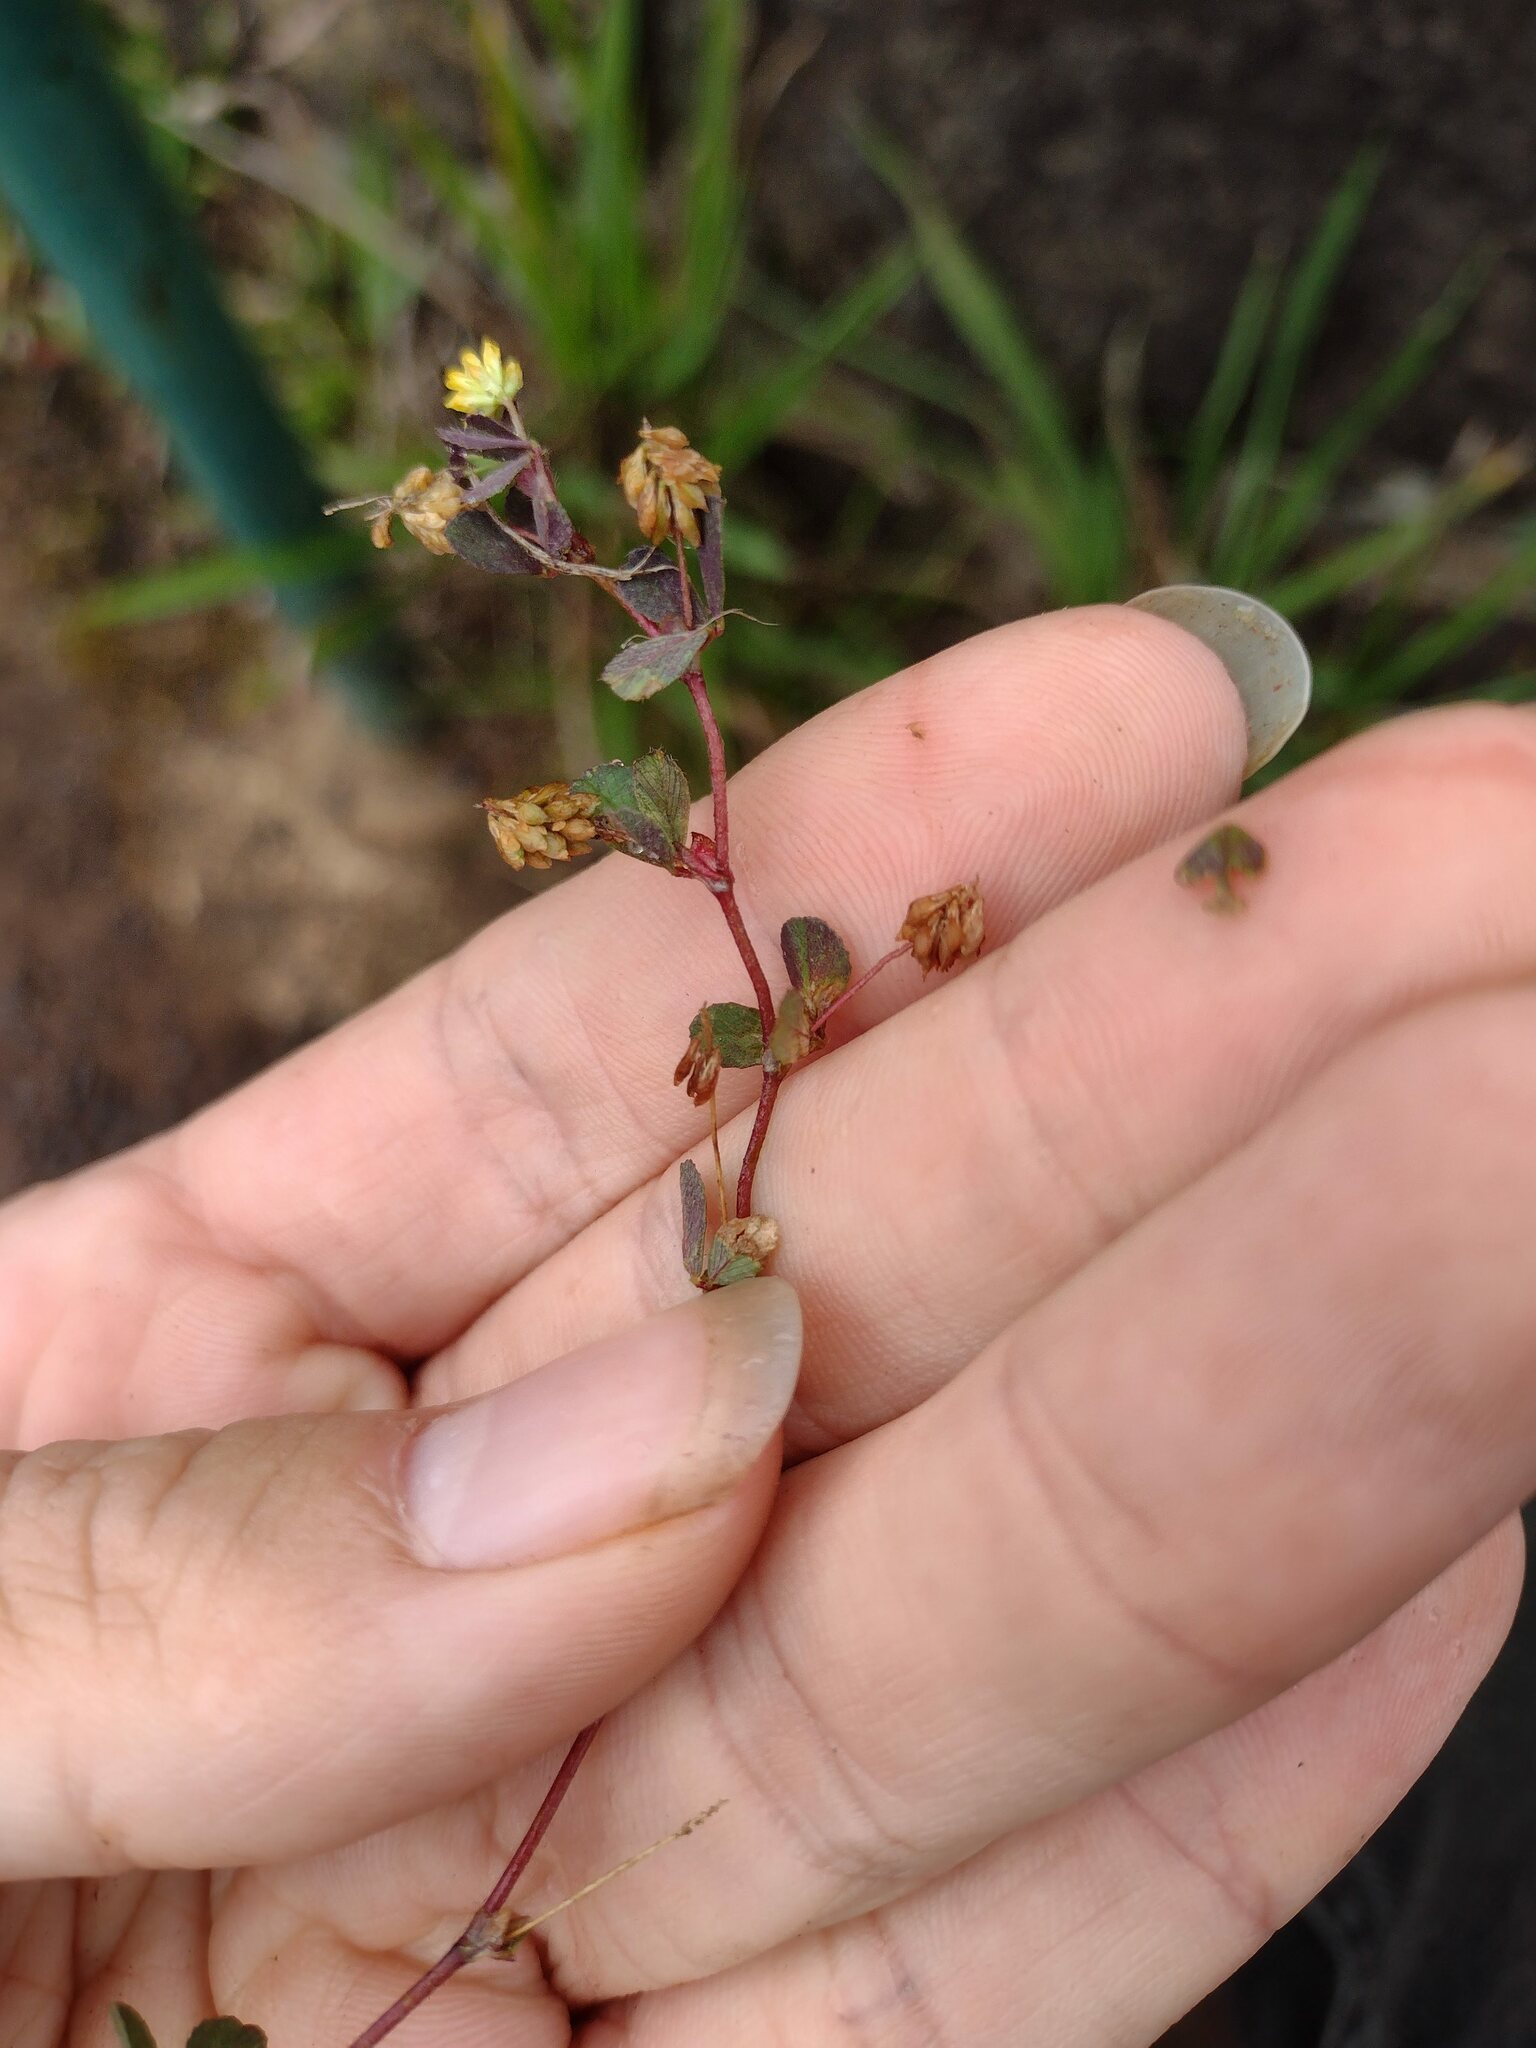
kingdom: Plantae
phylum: Tracheophyta
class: Magnoliopsida
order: Fabales
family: Fabaceae
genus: Trifolium
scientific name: Trifolium dubium
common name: Suckling clover
